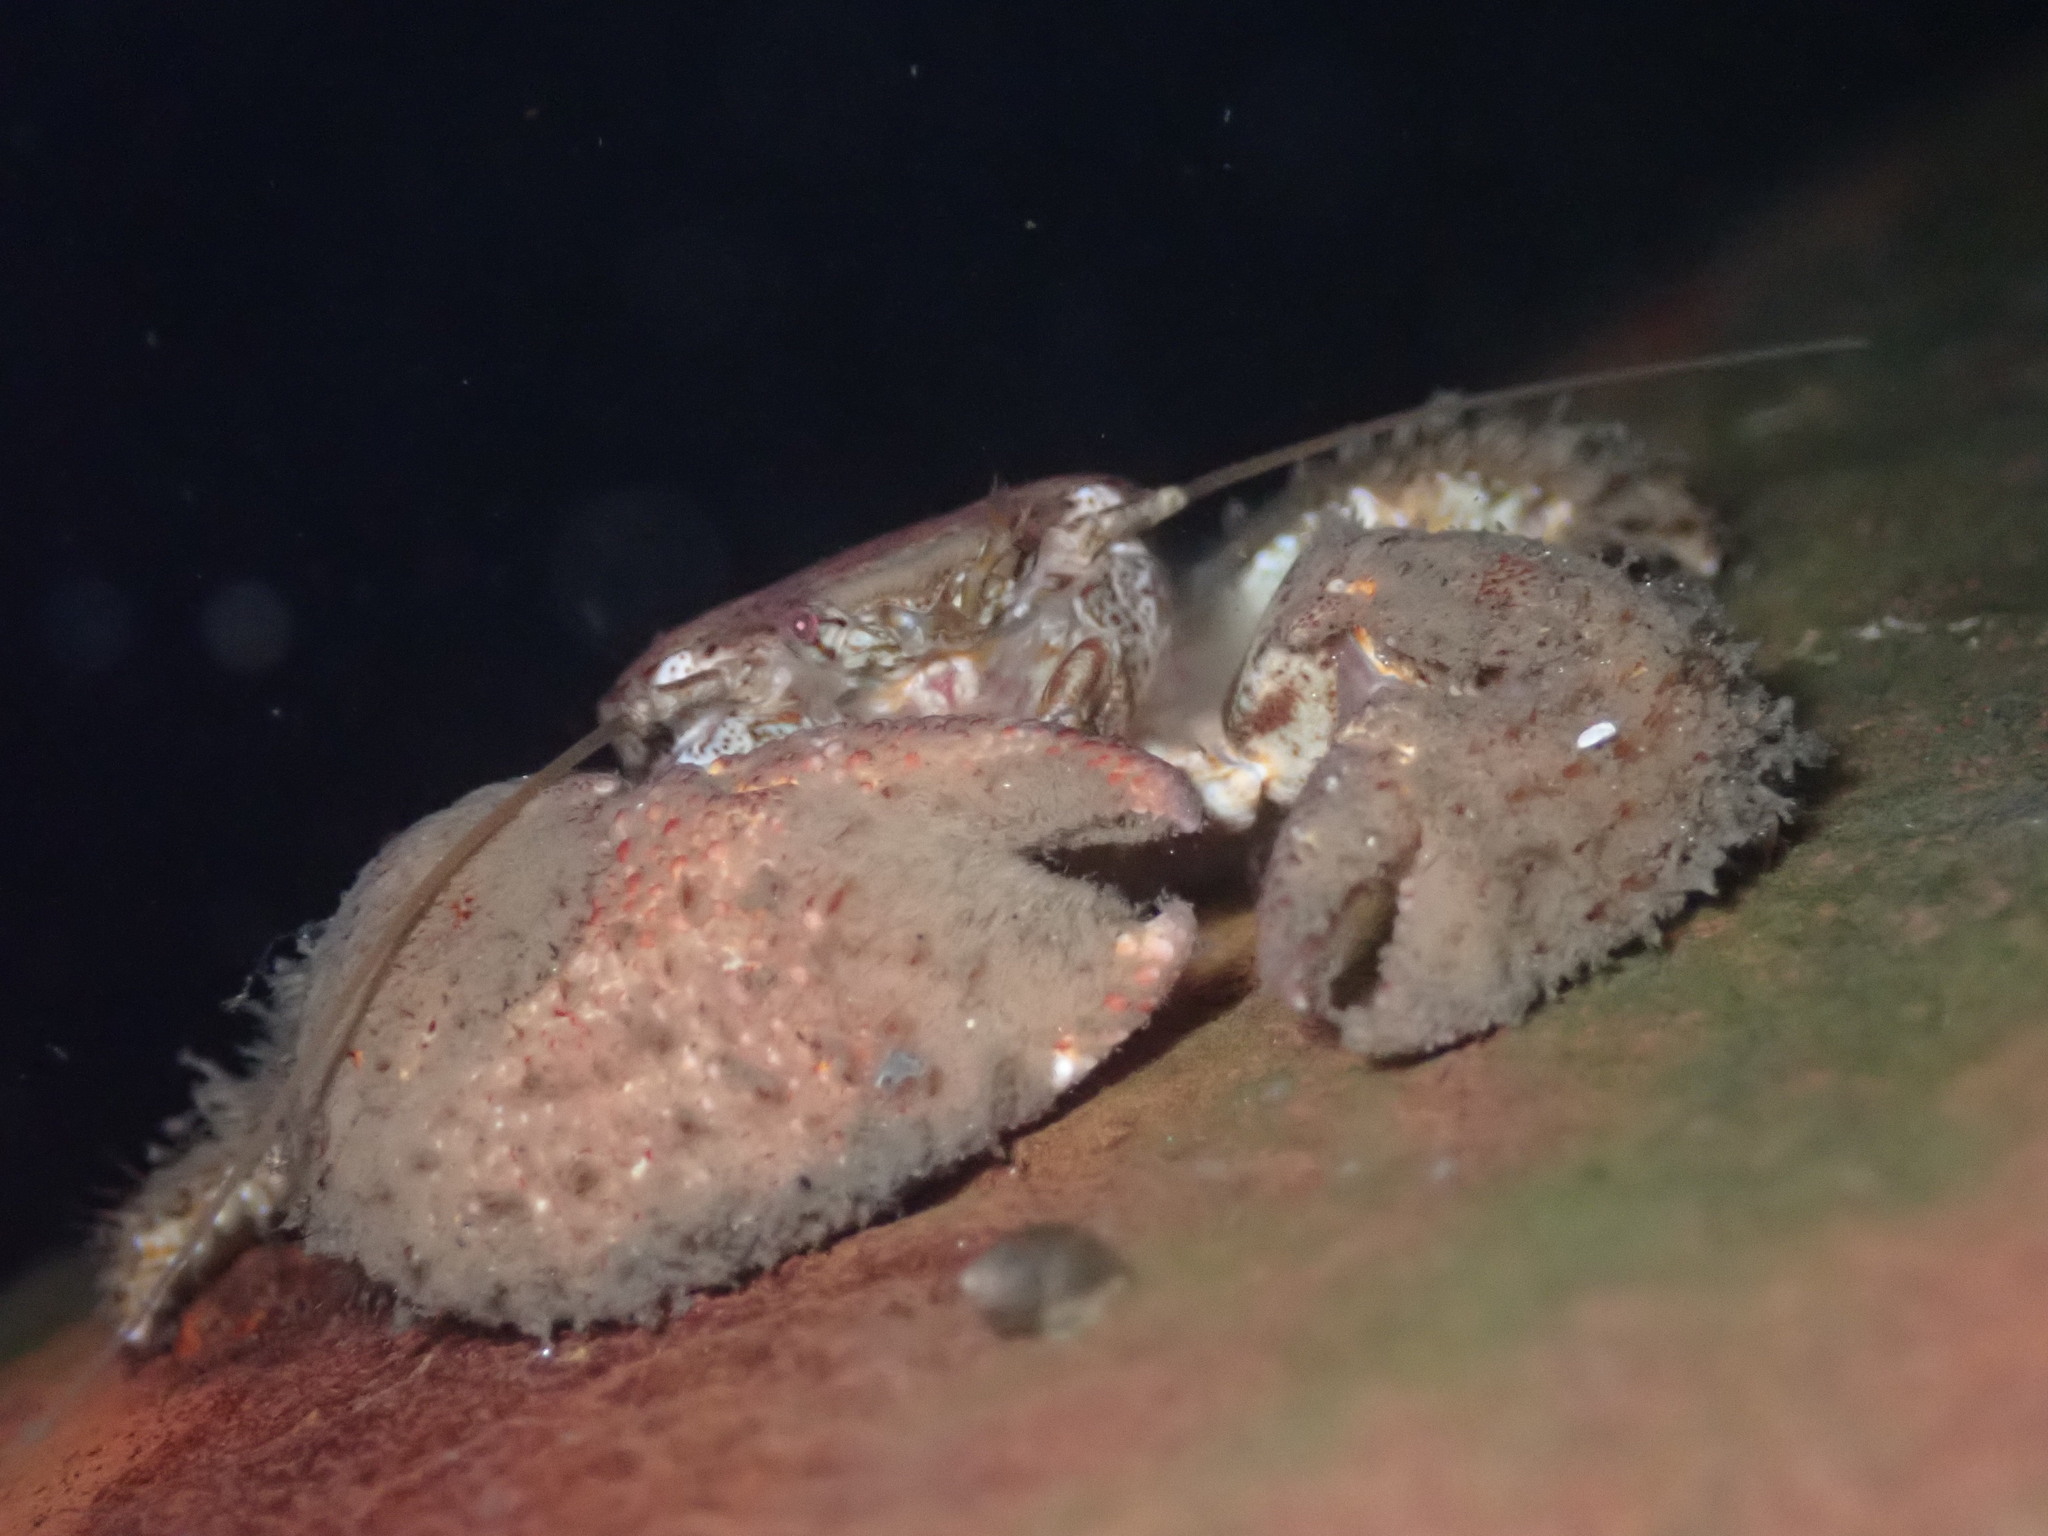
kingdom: Animalia
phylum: Arthropoda
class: Malacostraca
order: Decapoda
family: Porcellanidae
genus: Pachycheles
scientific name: Pachycheles rudis
